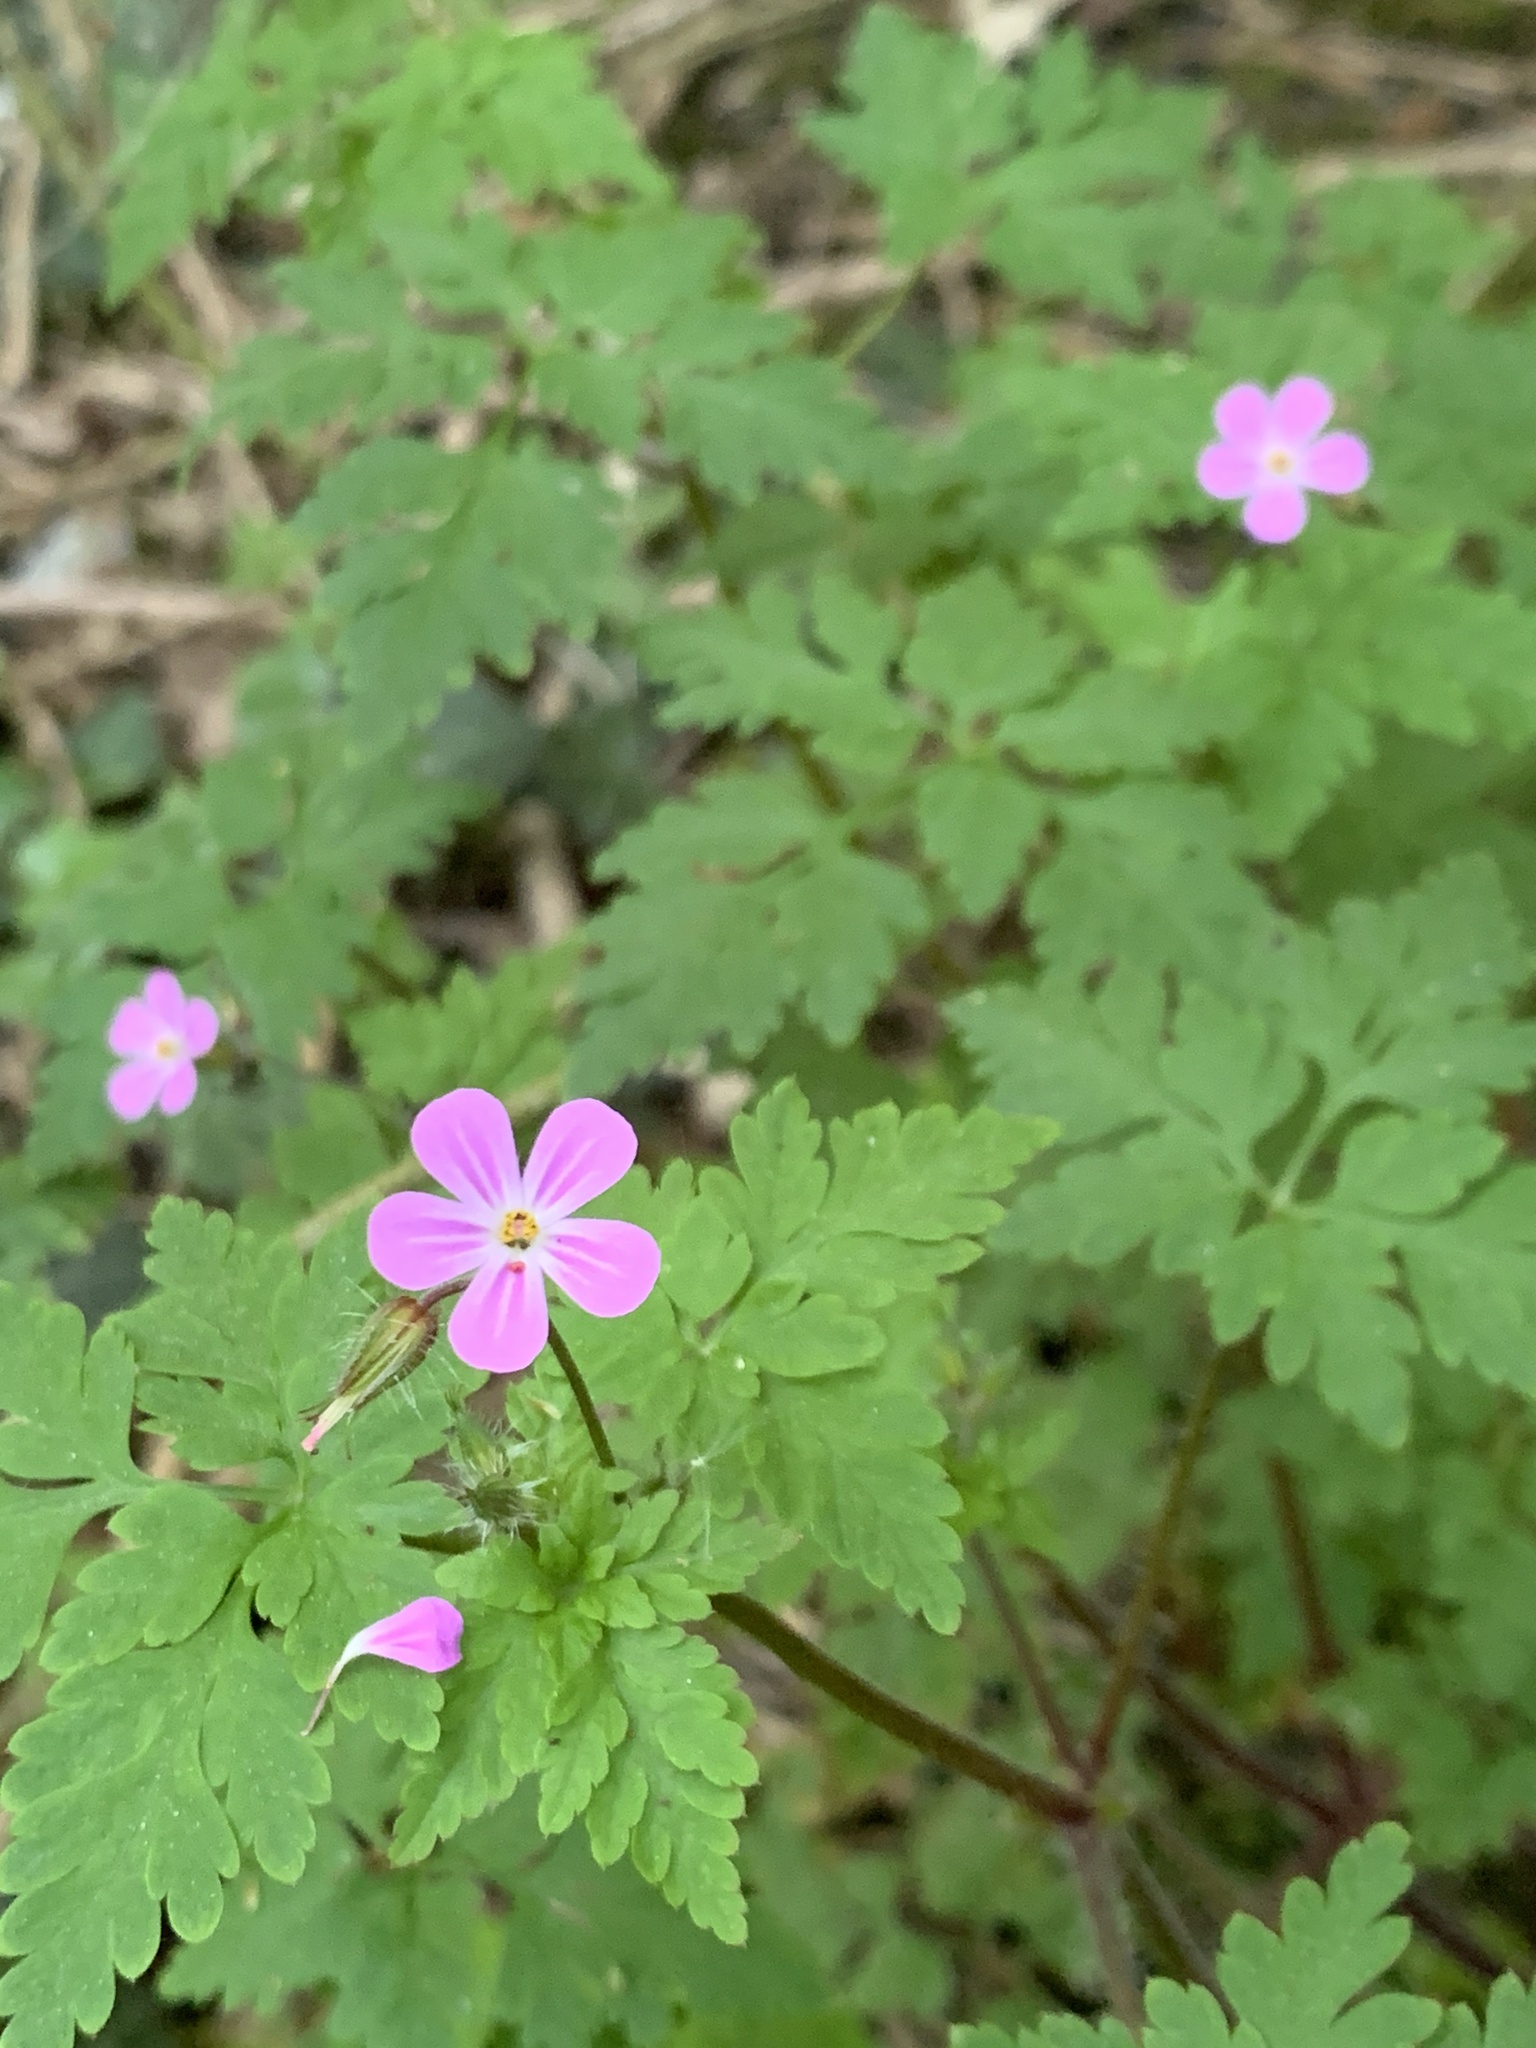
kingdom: Plantae
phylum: Tracheophyta
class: Magnoliopsida
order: Geraniales
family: Geraniaceae
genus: Geranium
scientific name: Geranium robertianum
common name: Herb-robert
